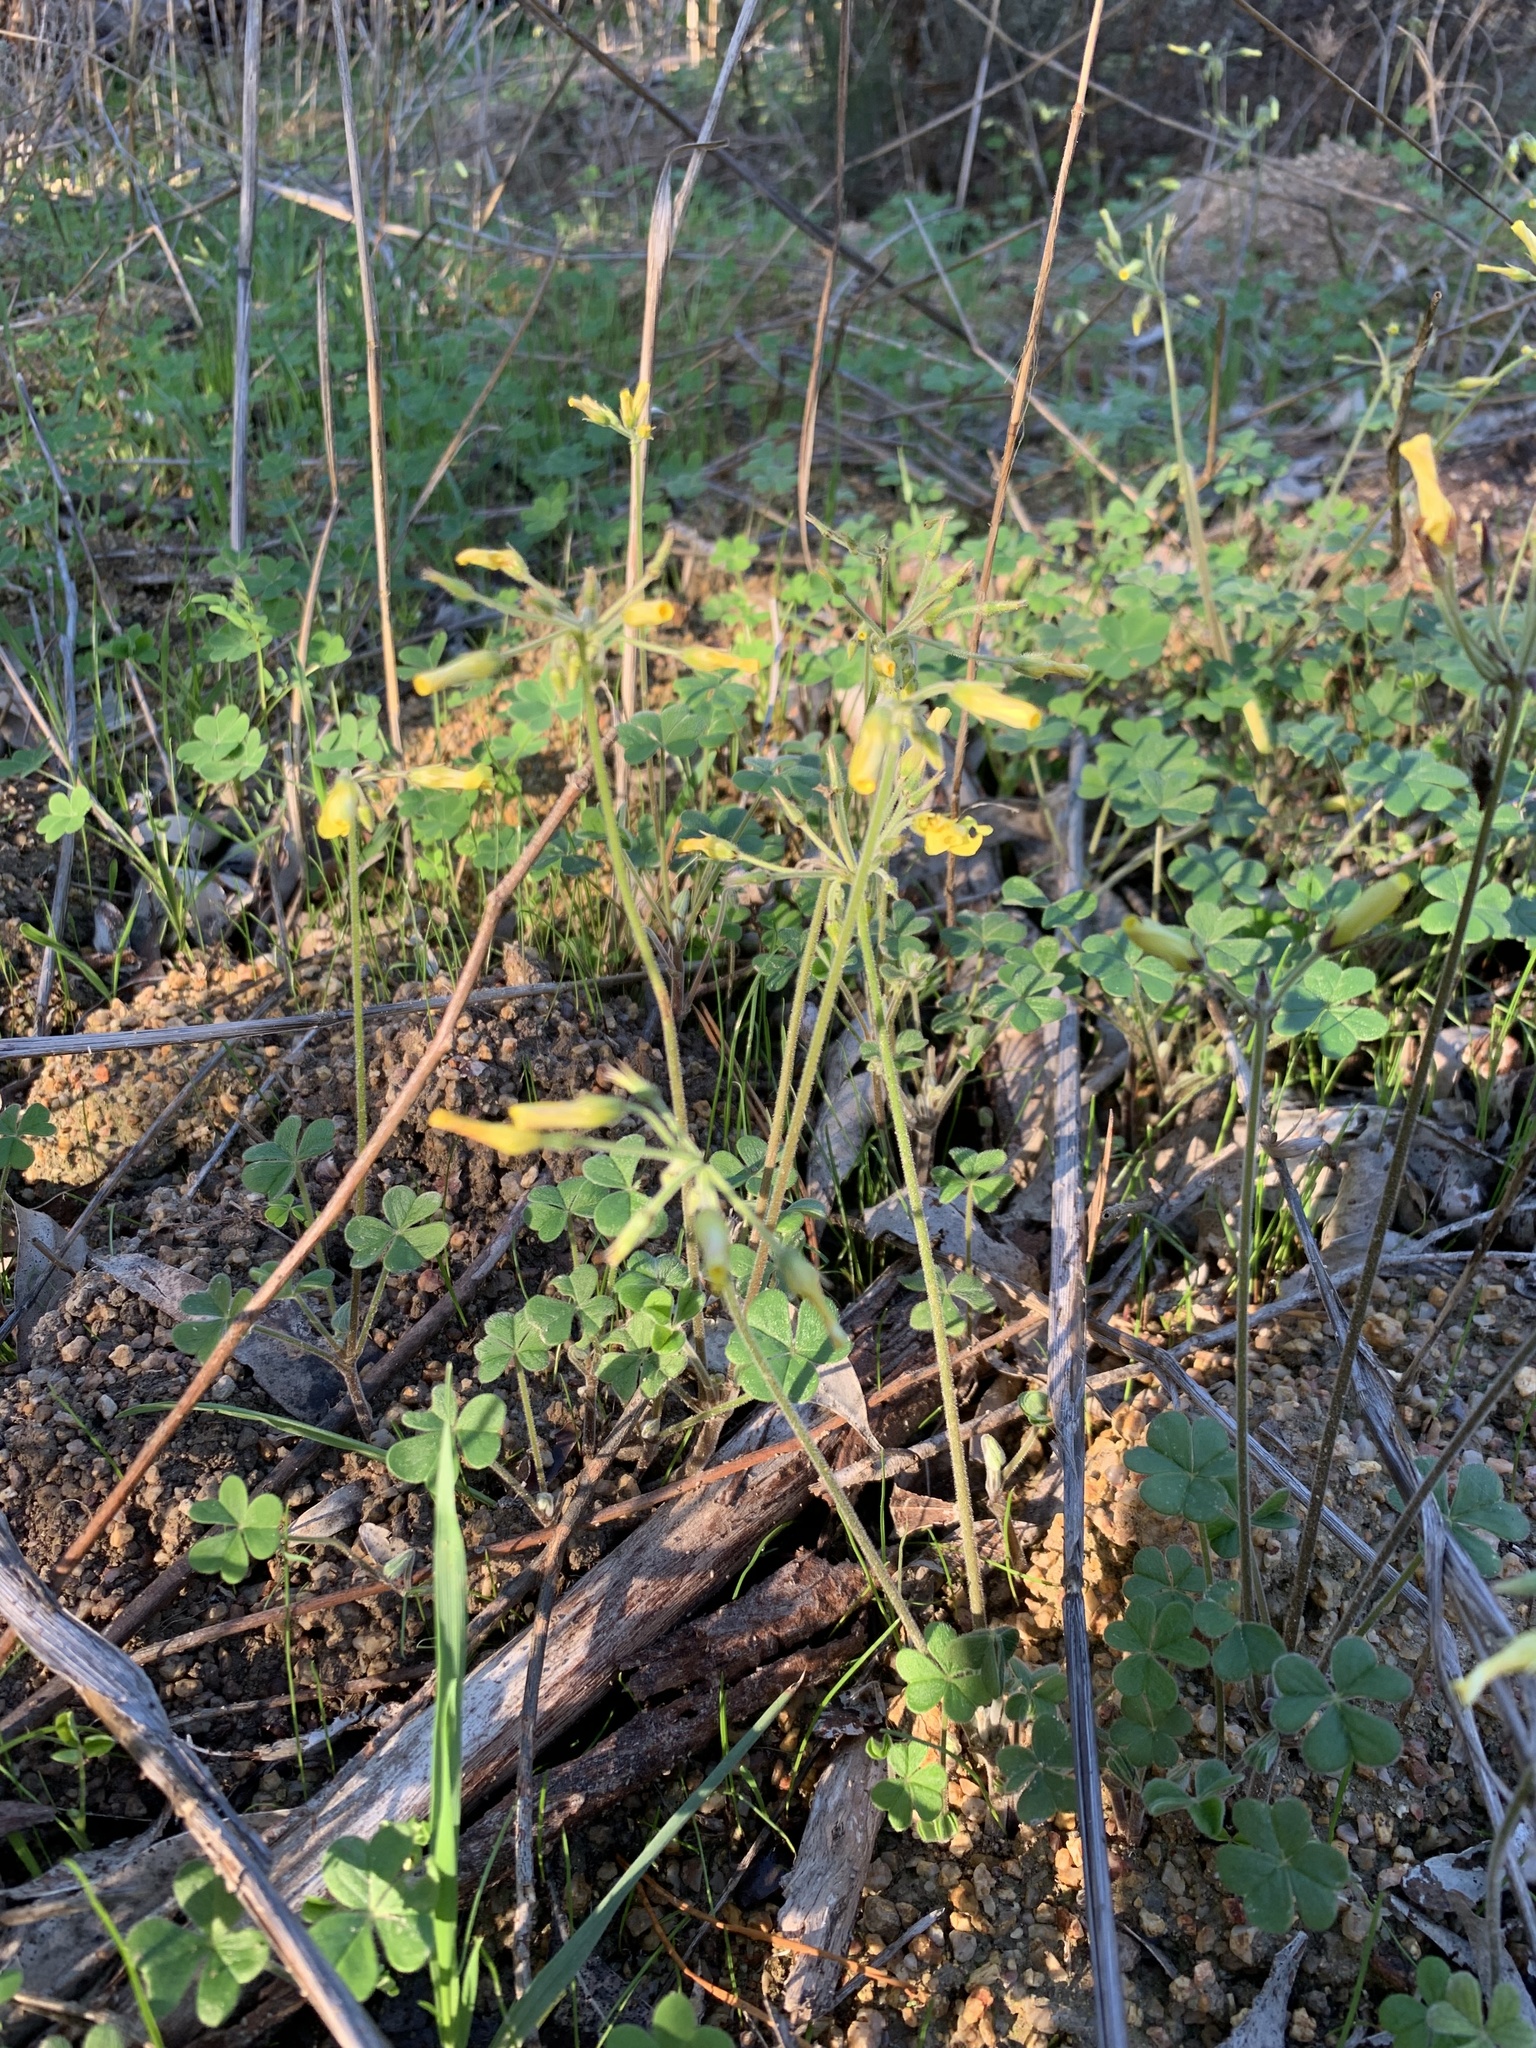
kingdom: Plantae
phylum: Tracheophyta
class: Magnoliopsida
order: Oxalidales
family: Oxalidaceae
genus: Oxalis
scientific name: Oxalis pes-caprae
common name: Bermuda-buttercup
